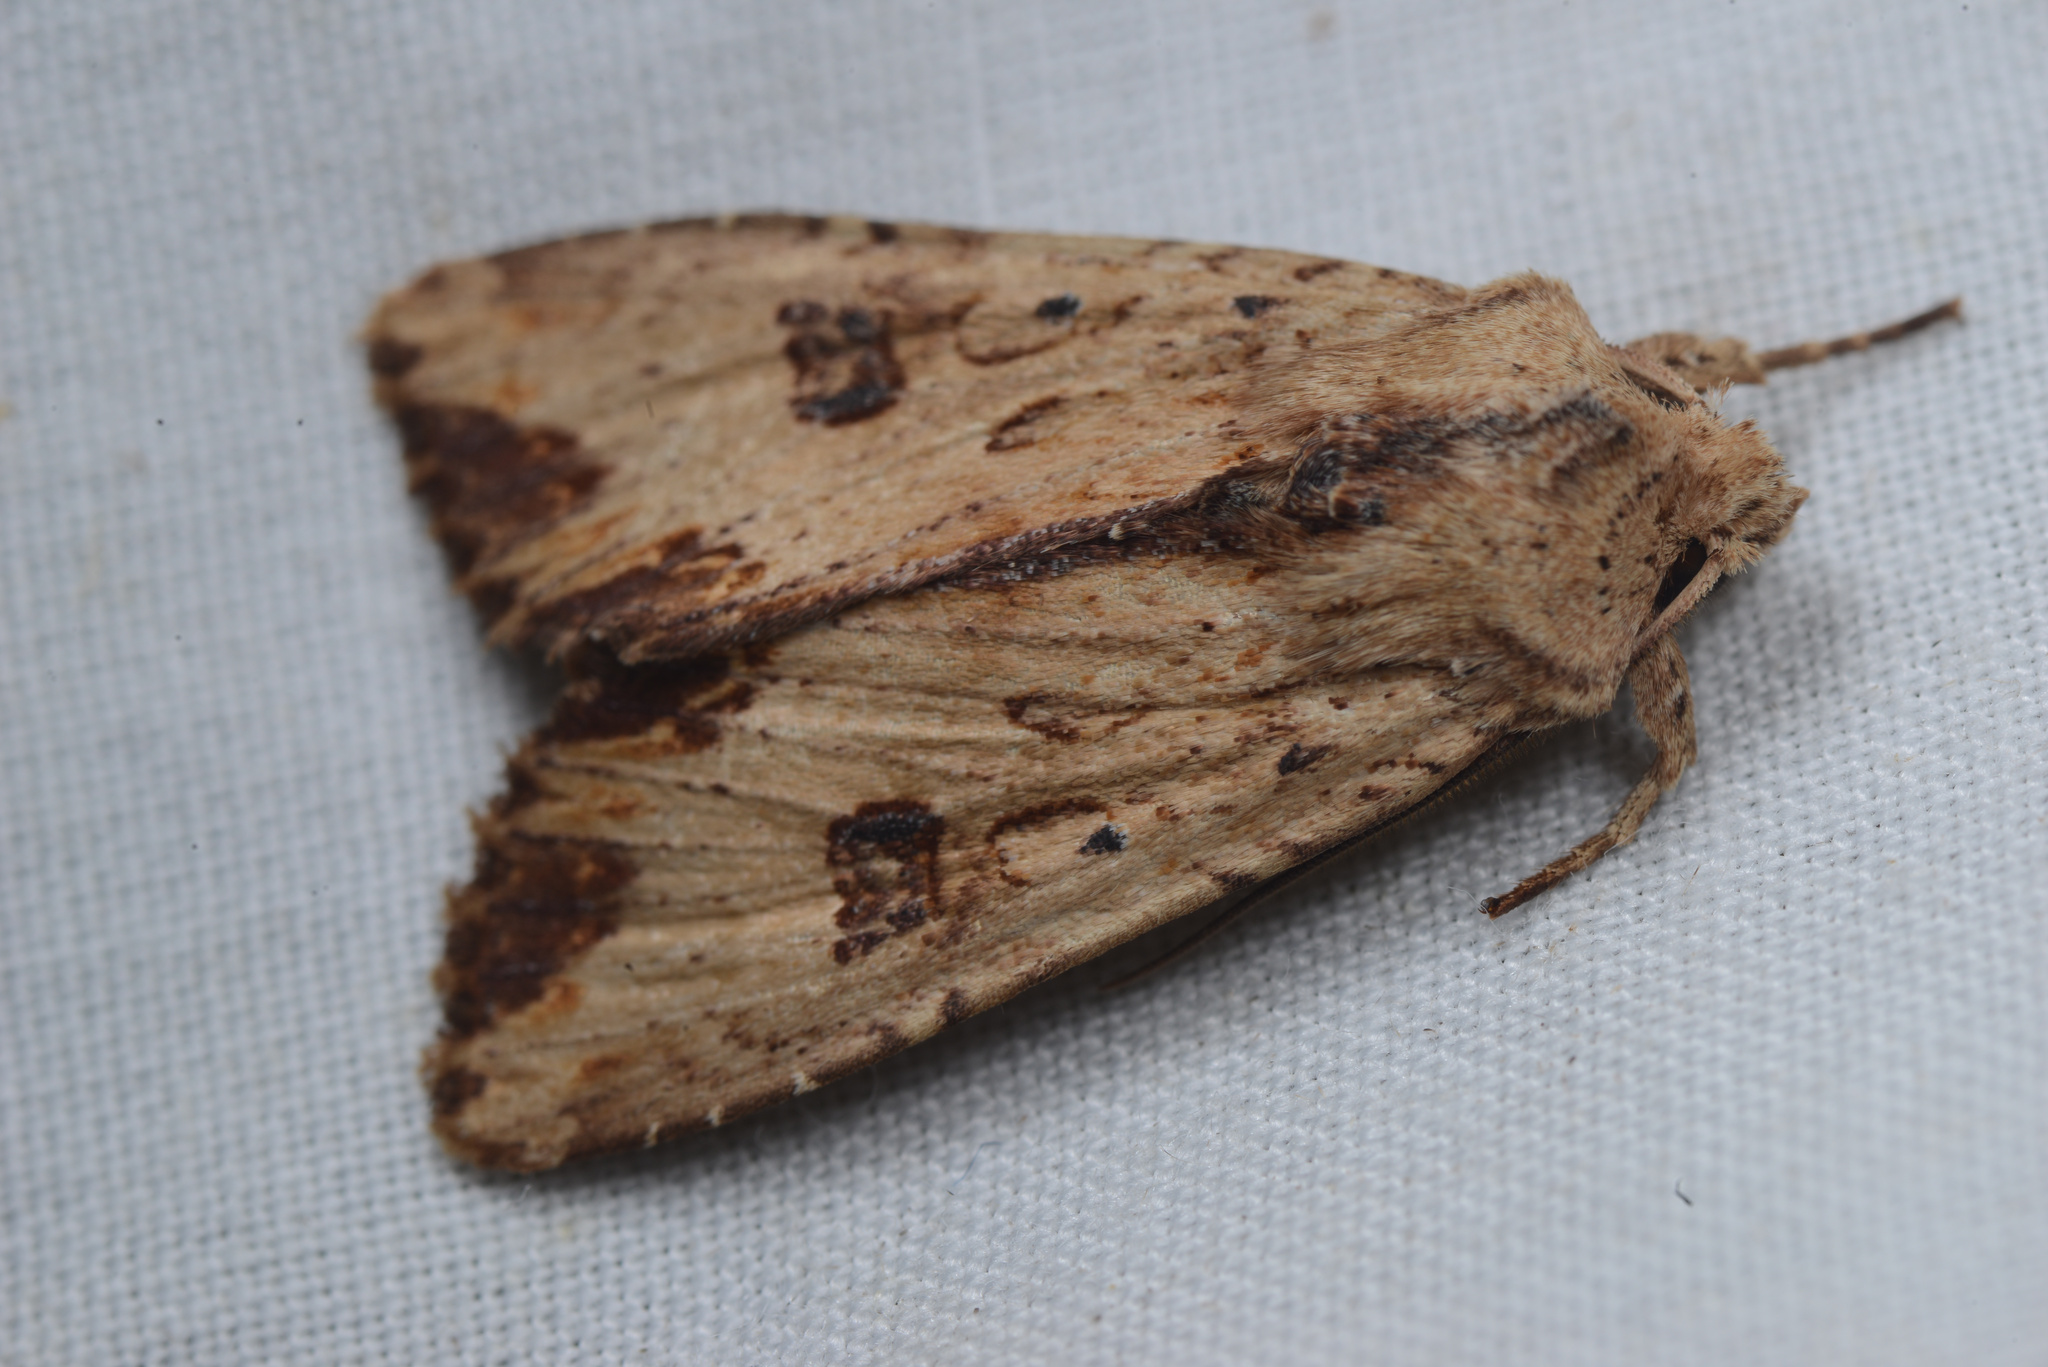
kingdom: Animalia
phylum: Arthropoda
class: Insecta
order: Lepidoptera
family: Noctuidae
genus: Ichneutica
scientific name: Ichneutica
